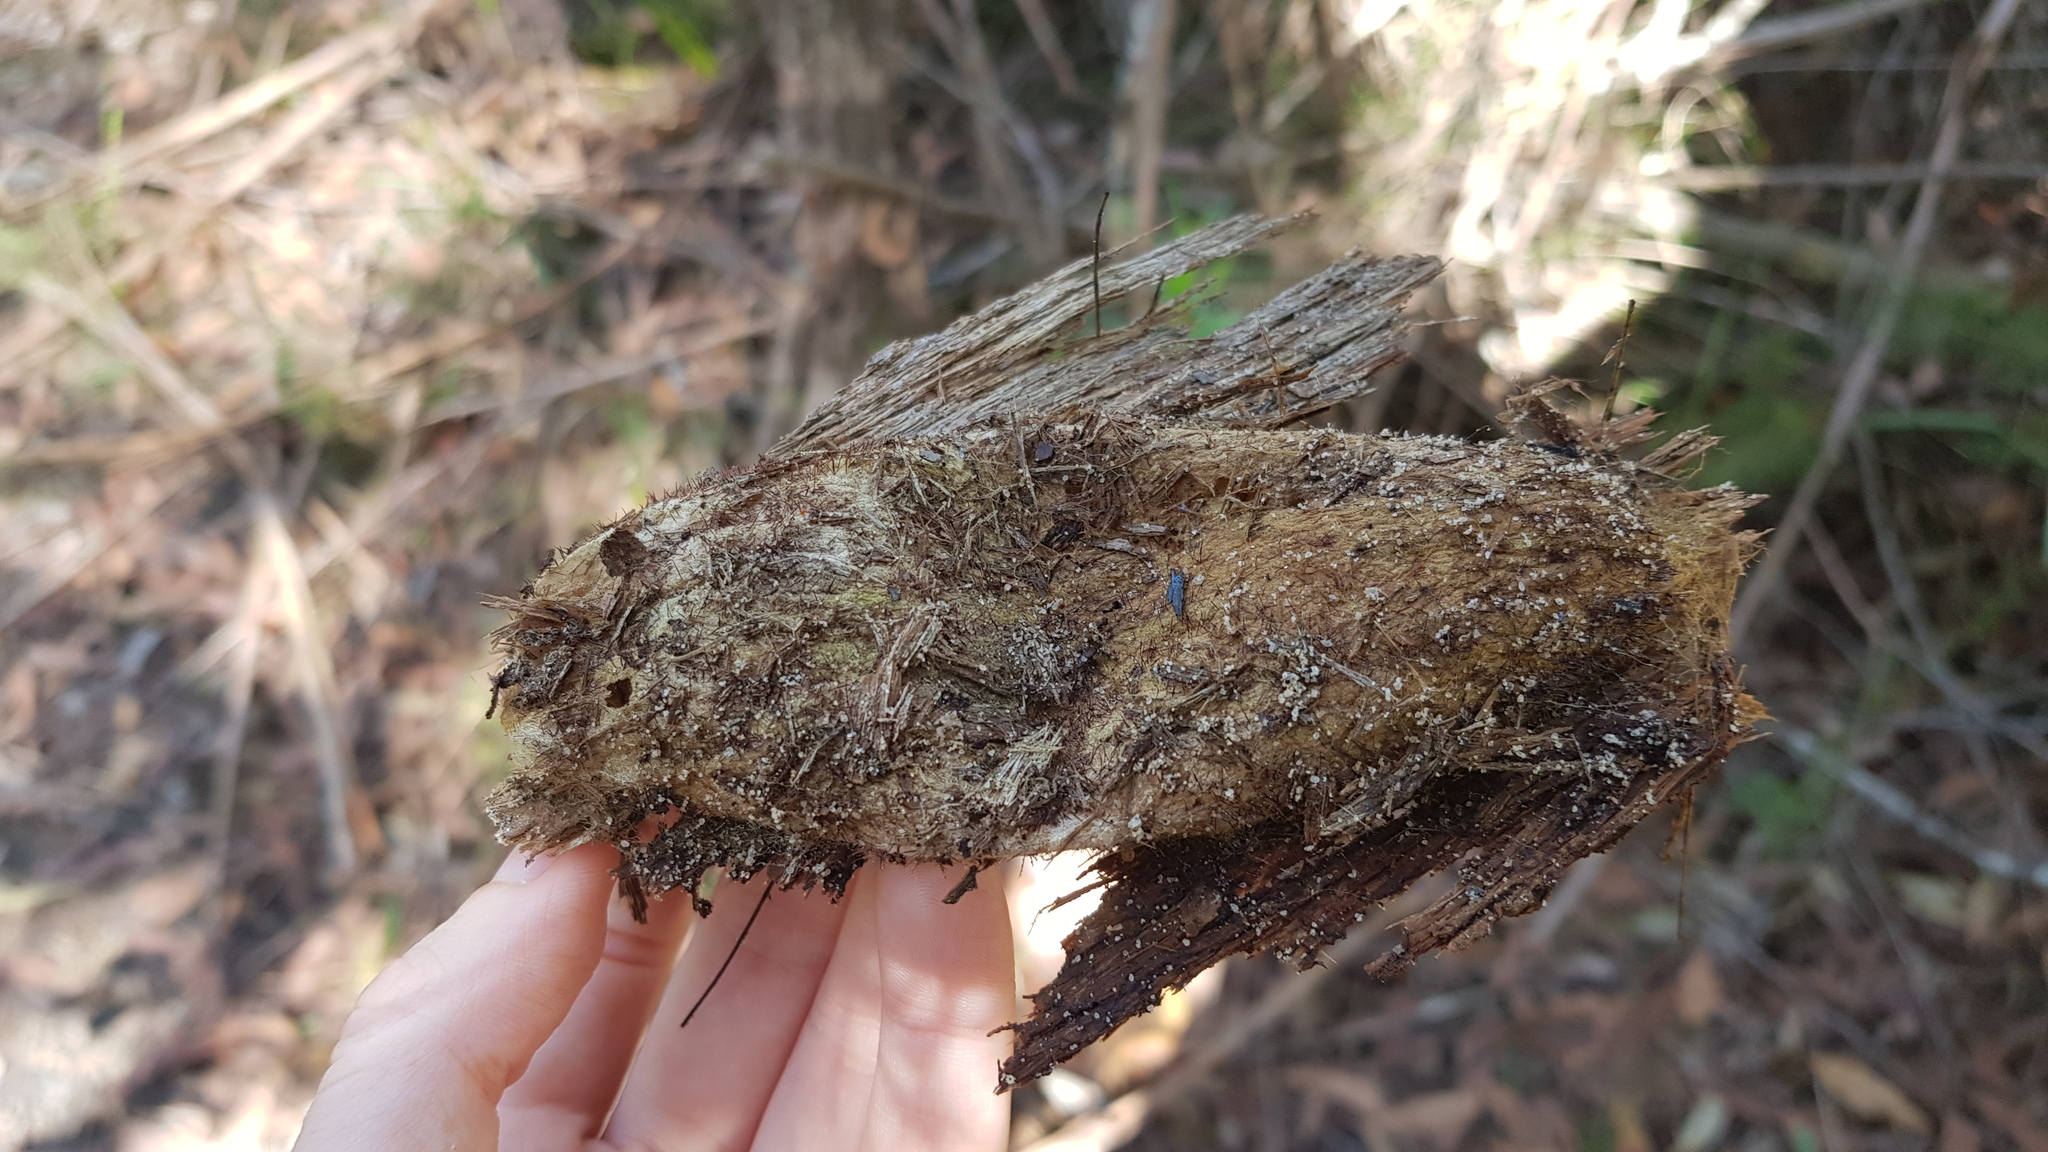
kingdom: Animalia
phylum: Arthropoda
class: Insecta
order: Lepidoptera
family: Anthelidae
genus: Chelepteryx
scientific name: Chelepteryx collesi
